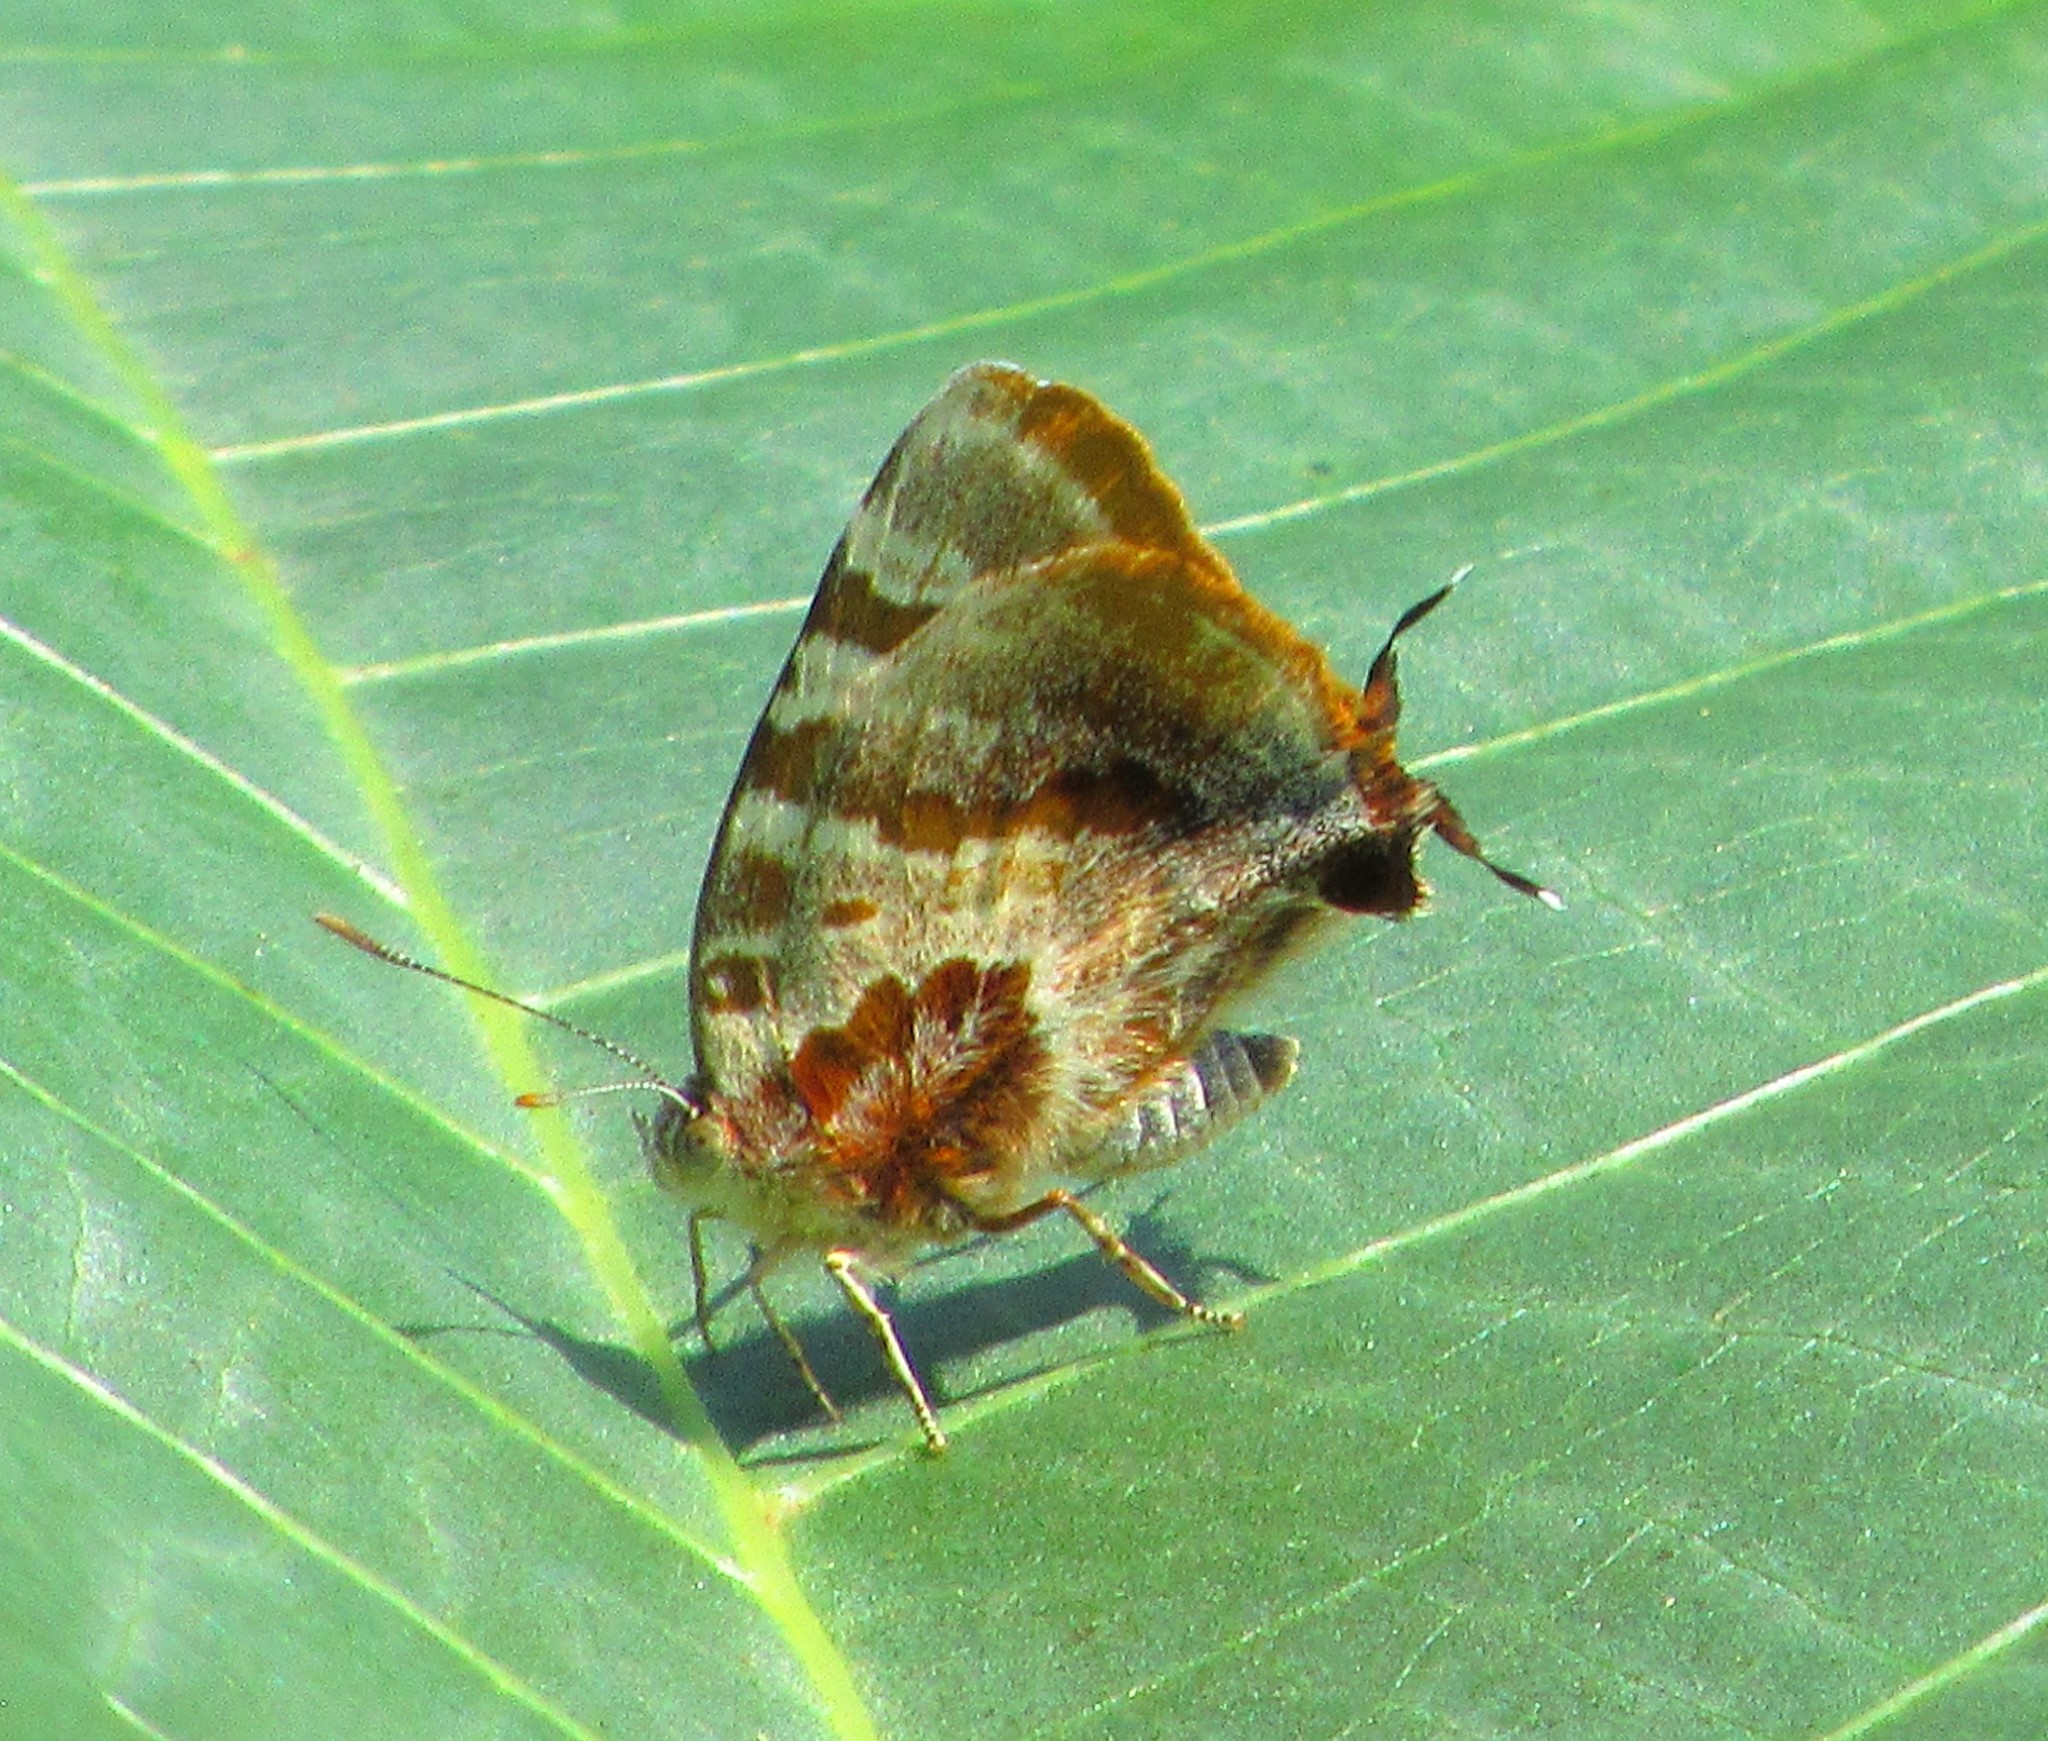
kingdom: Animalia
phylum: Arthropoda
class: Insecta
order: Lepidoptera
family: Lycaenidae
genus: Arawacus
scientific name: Arawacus ellida
